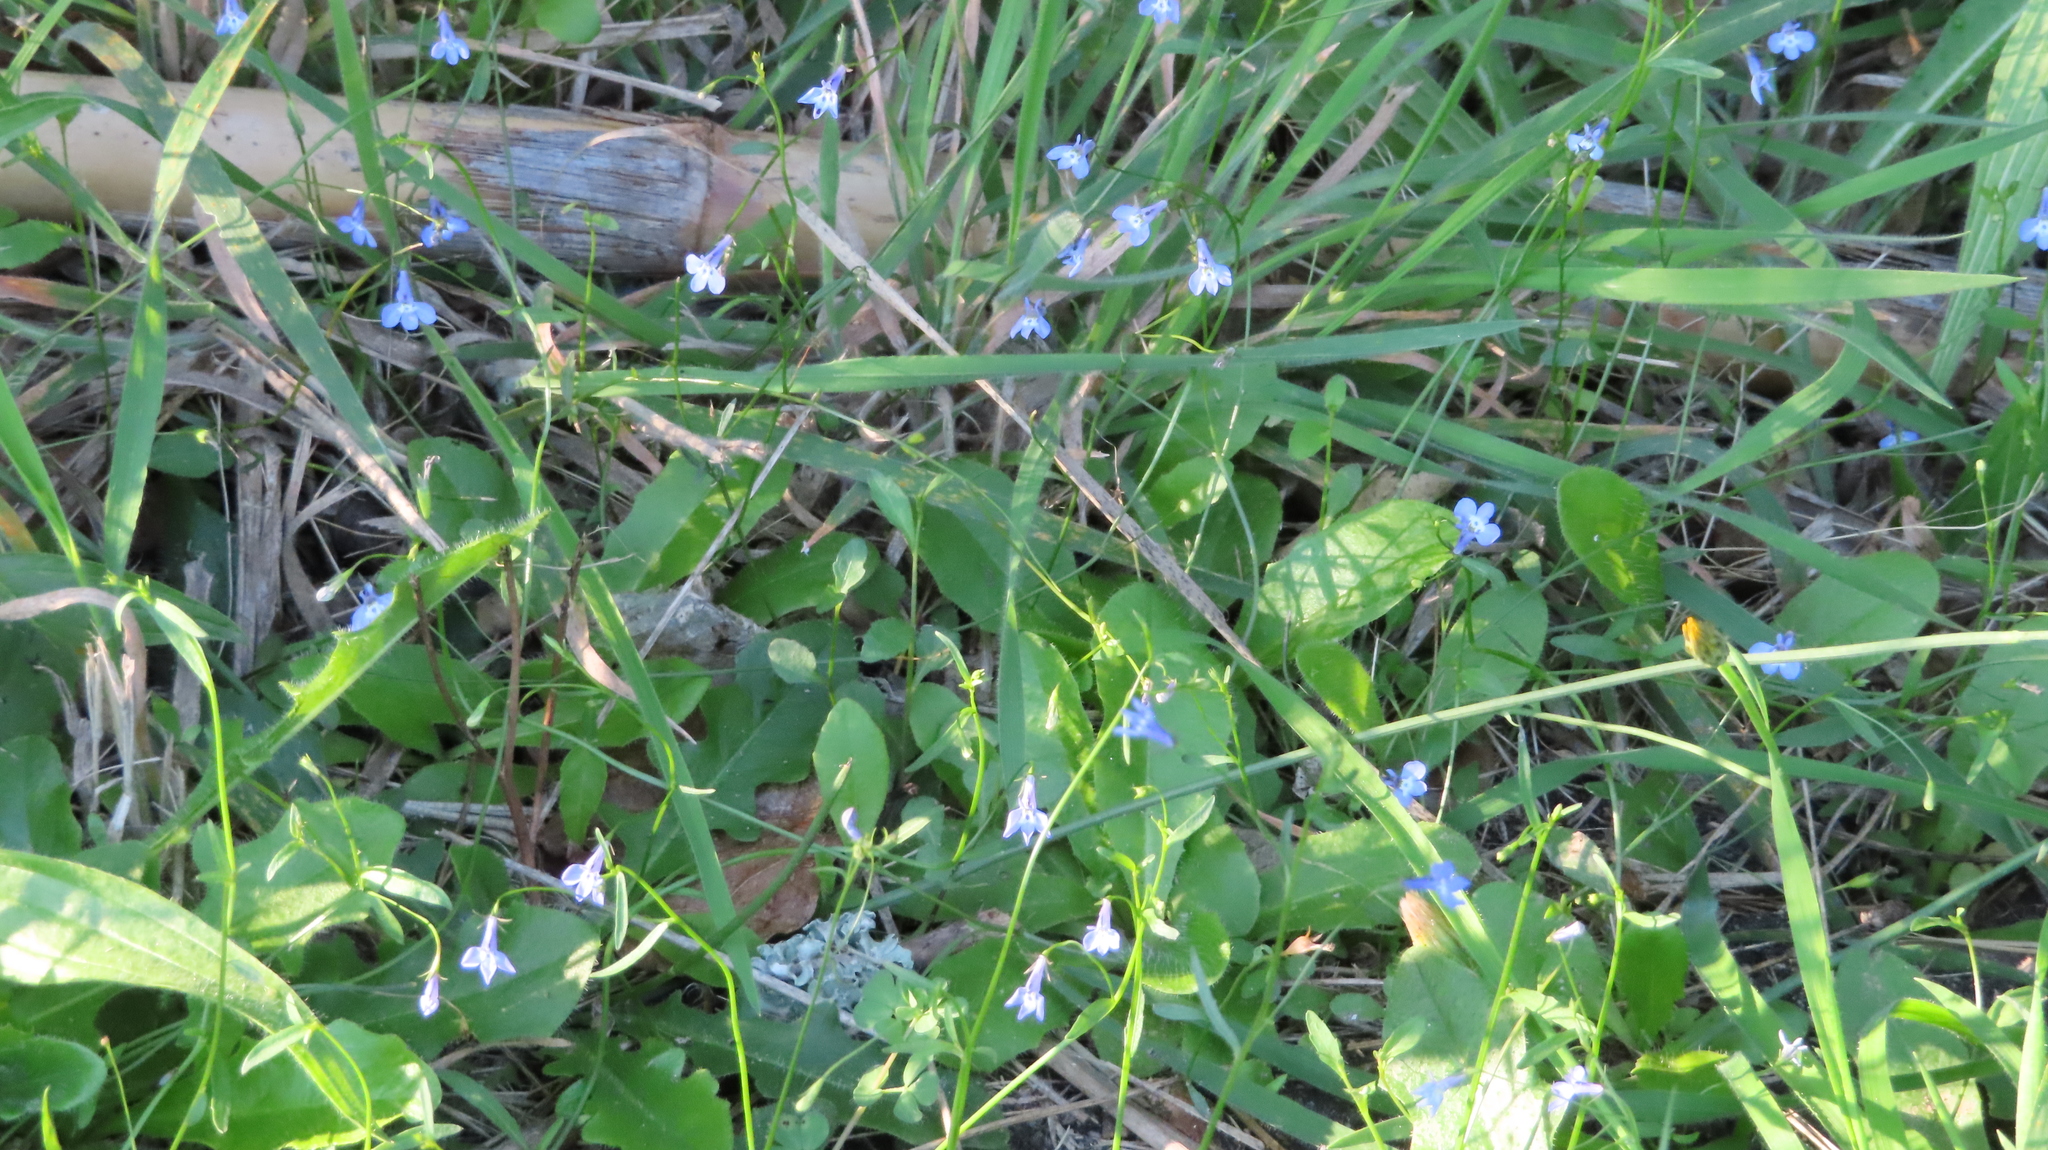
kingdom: Plantae
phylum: Tracheophyta
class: Magnoliopsida
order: Asterales
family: Campanulaceae
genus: Lobelia
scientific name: Lobelia erinus
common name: Edging lobelia
